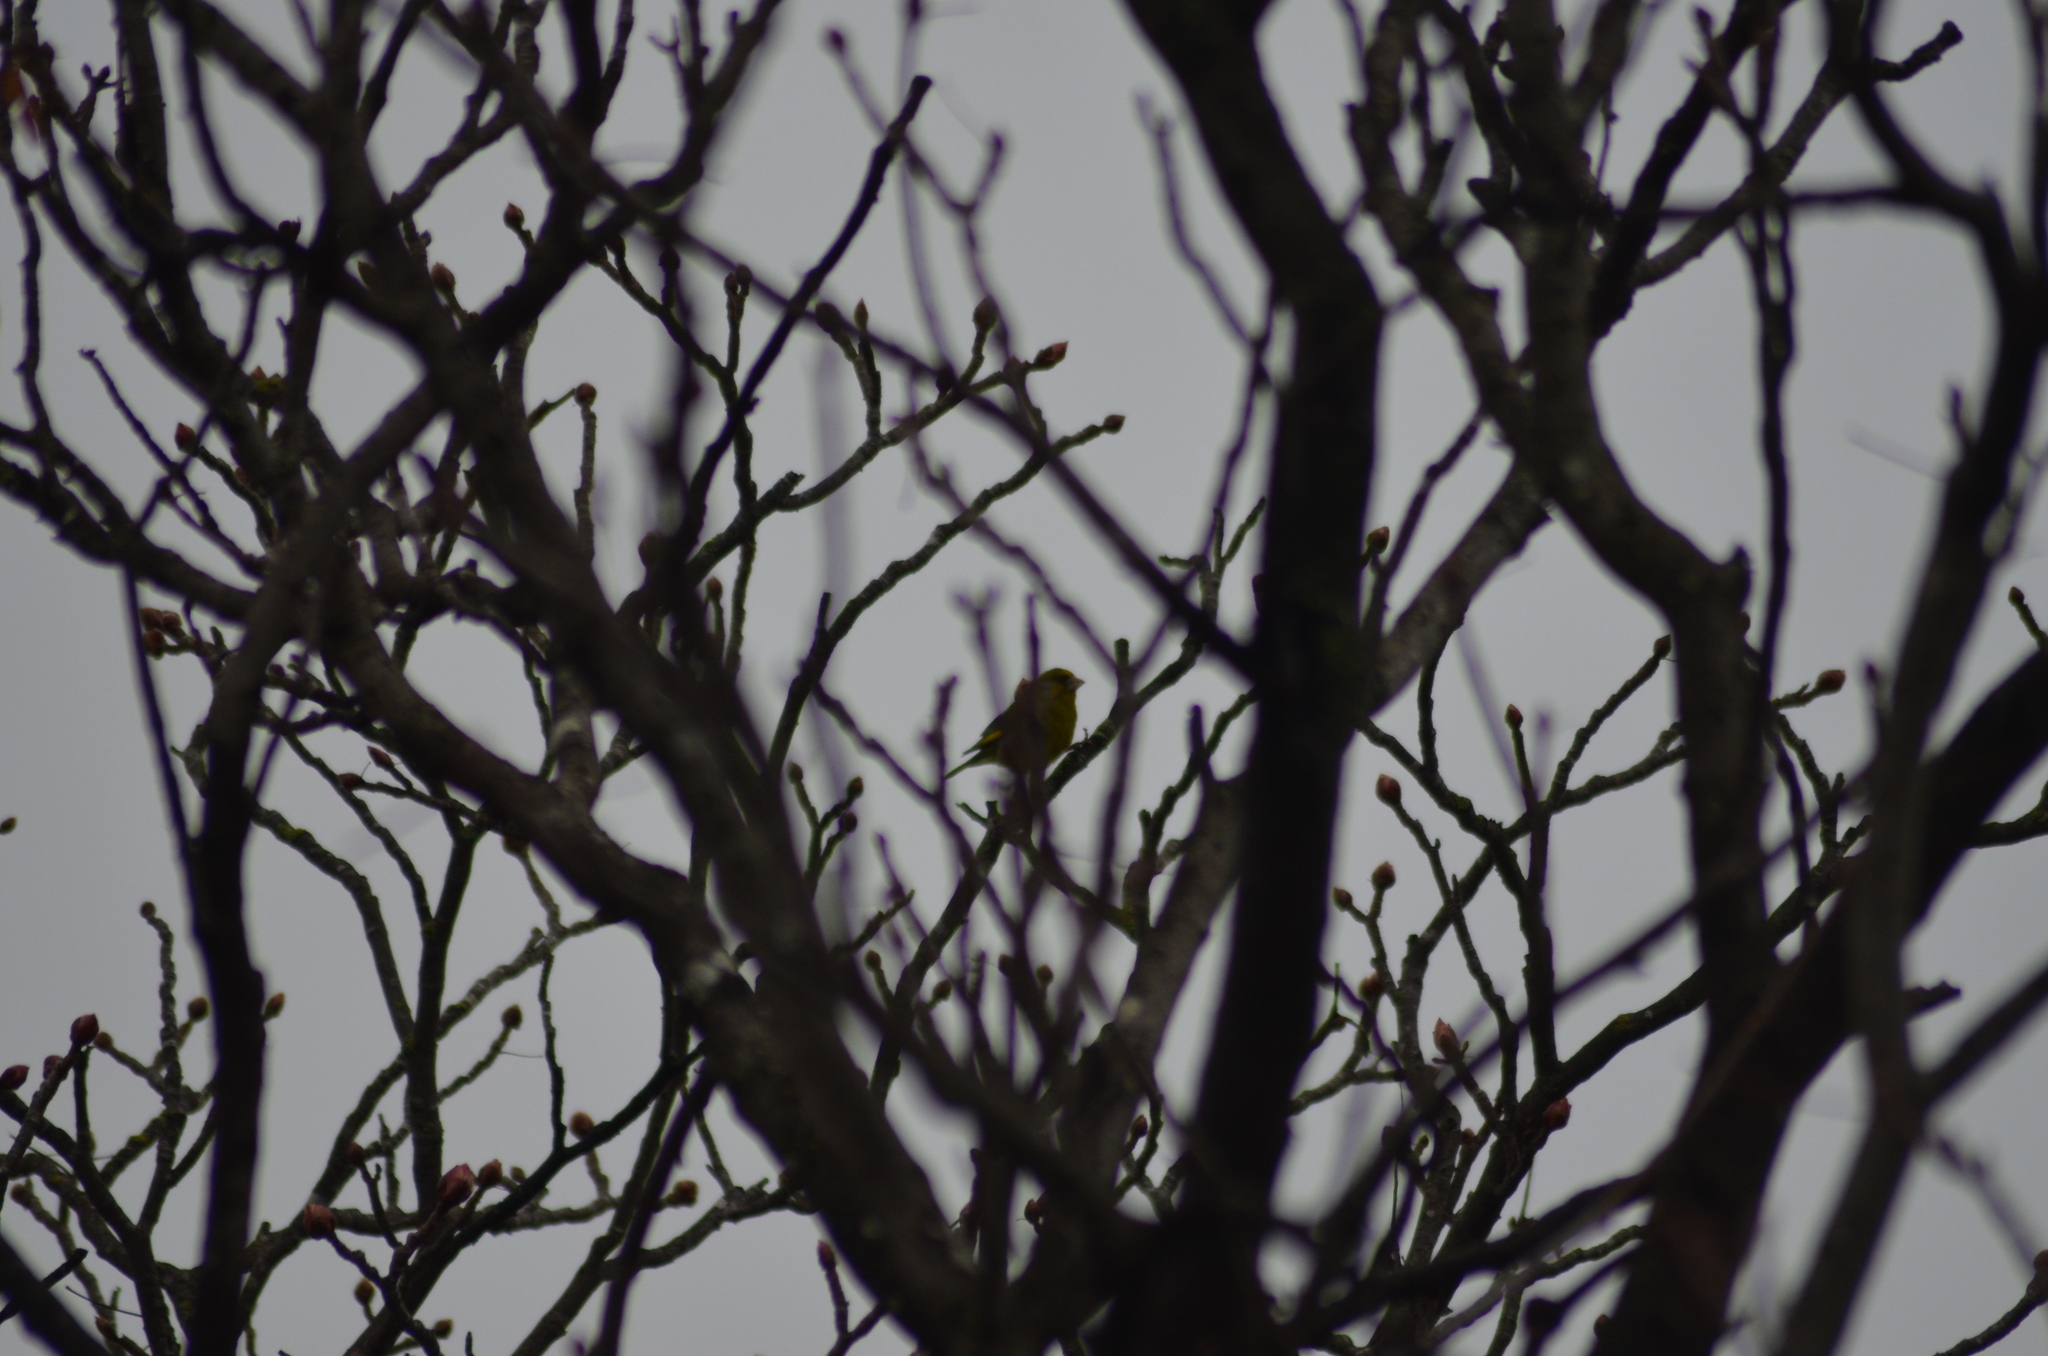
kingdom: Plantae
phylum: Tracheophyta
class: Liliopsida
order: Poales
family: Poaceae
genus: Chloris
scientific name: Chloris chloris
